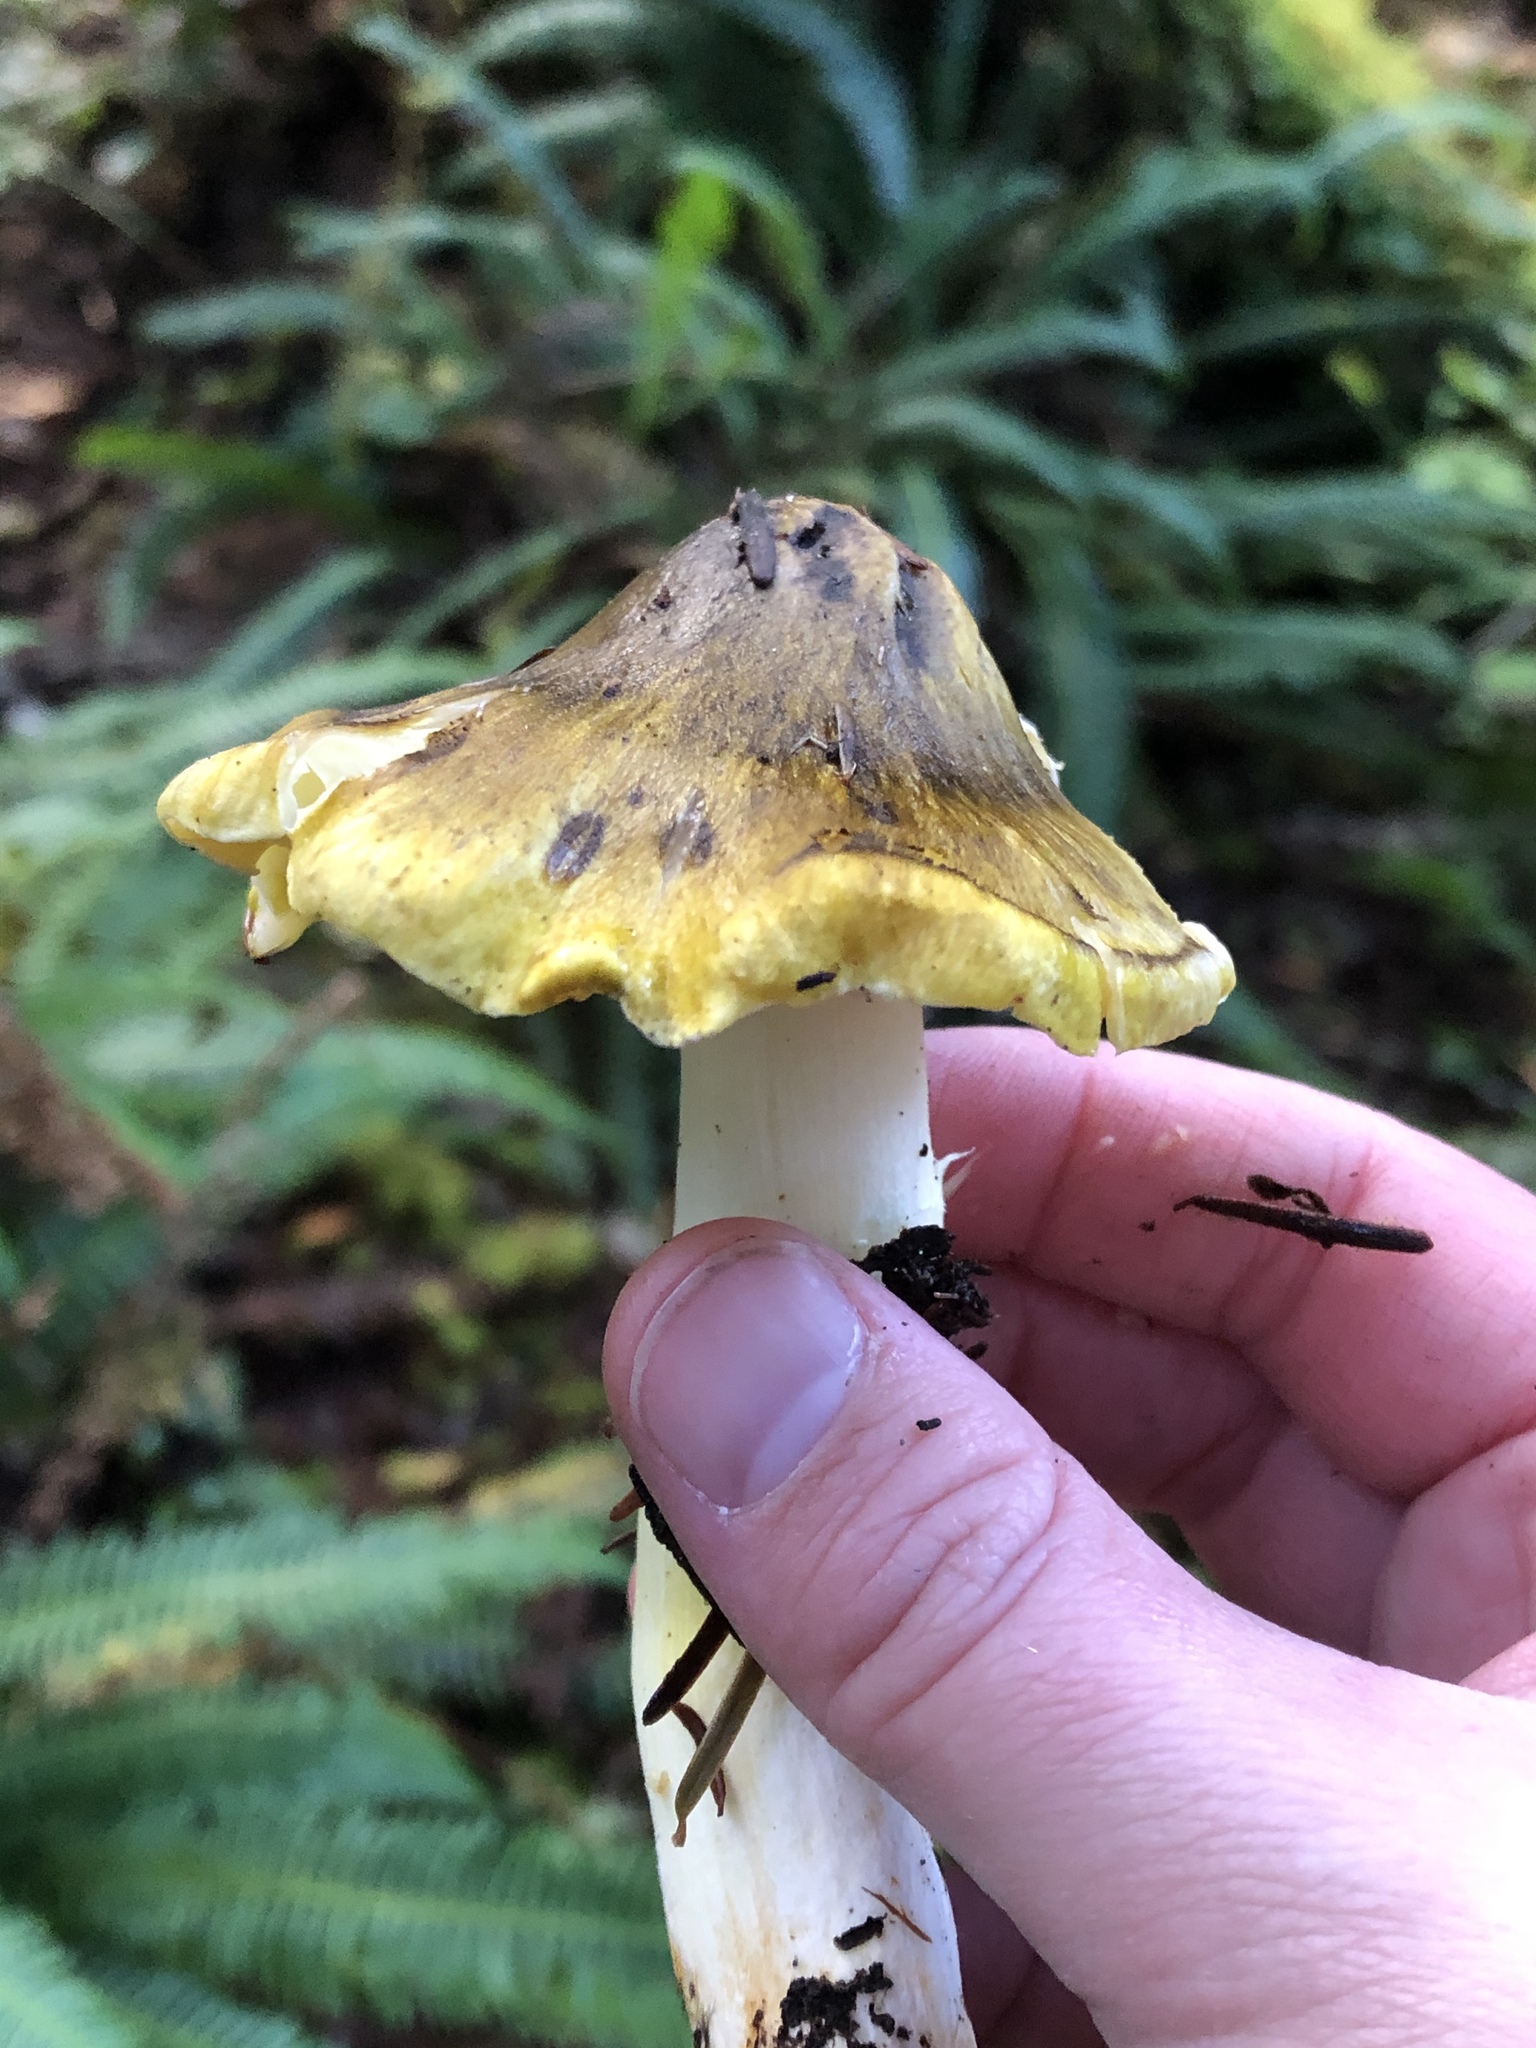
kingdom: Fungi
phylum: Basidiomycota
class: Agaricomycetes
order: Agaricales
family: Tricholomataceae
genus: Tricholoma
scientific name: Tricholoma subsejunctum
